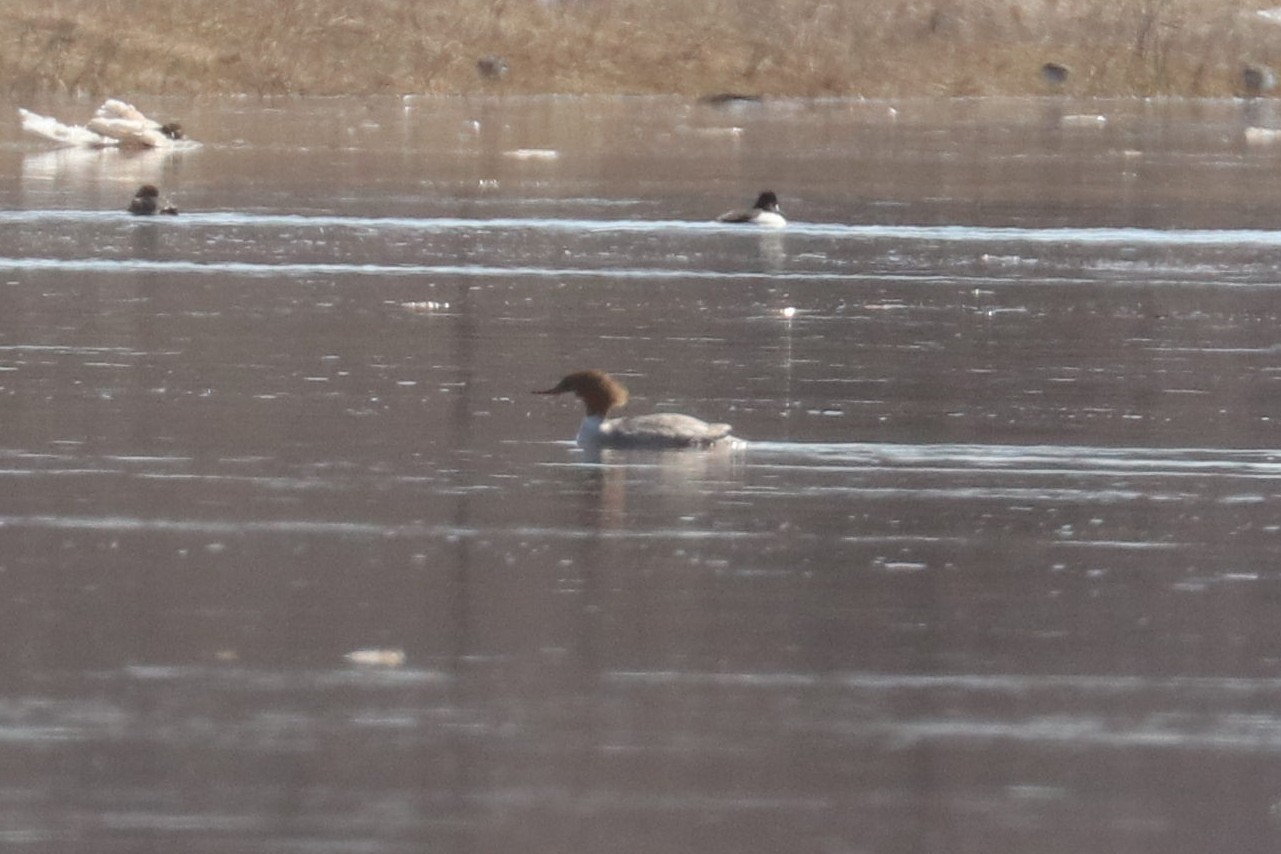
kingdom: Animalia
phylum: Chordata
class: Aves
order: Anseriformes
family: Anatidae
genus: Mergus
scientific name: Mergus merganser
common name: Common merganser
